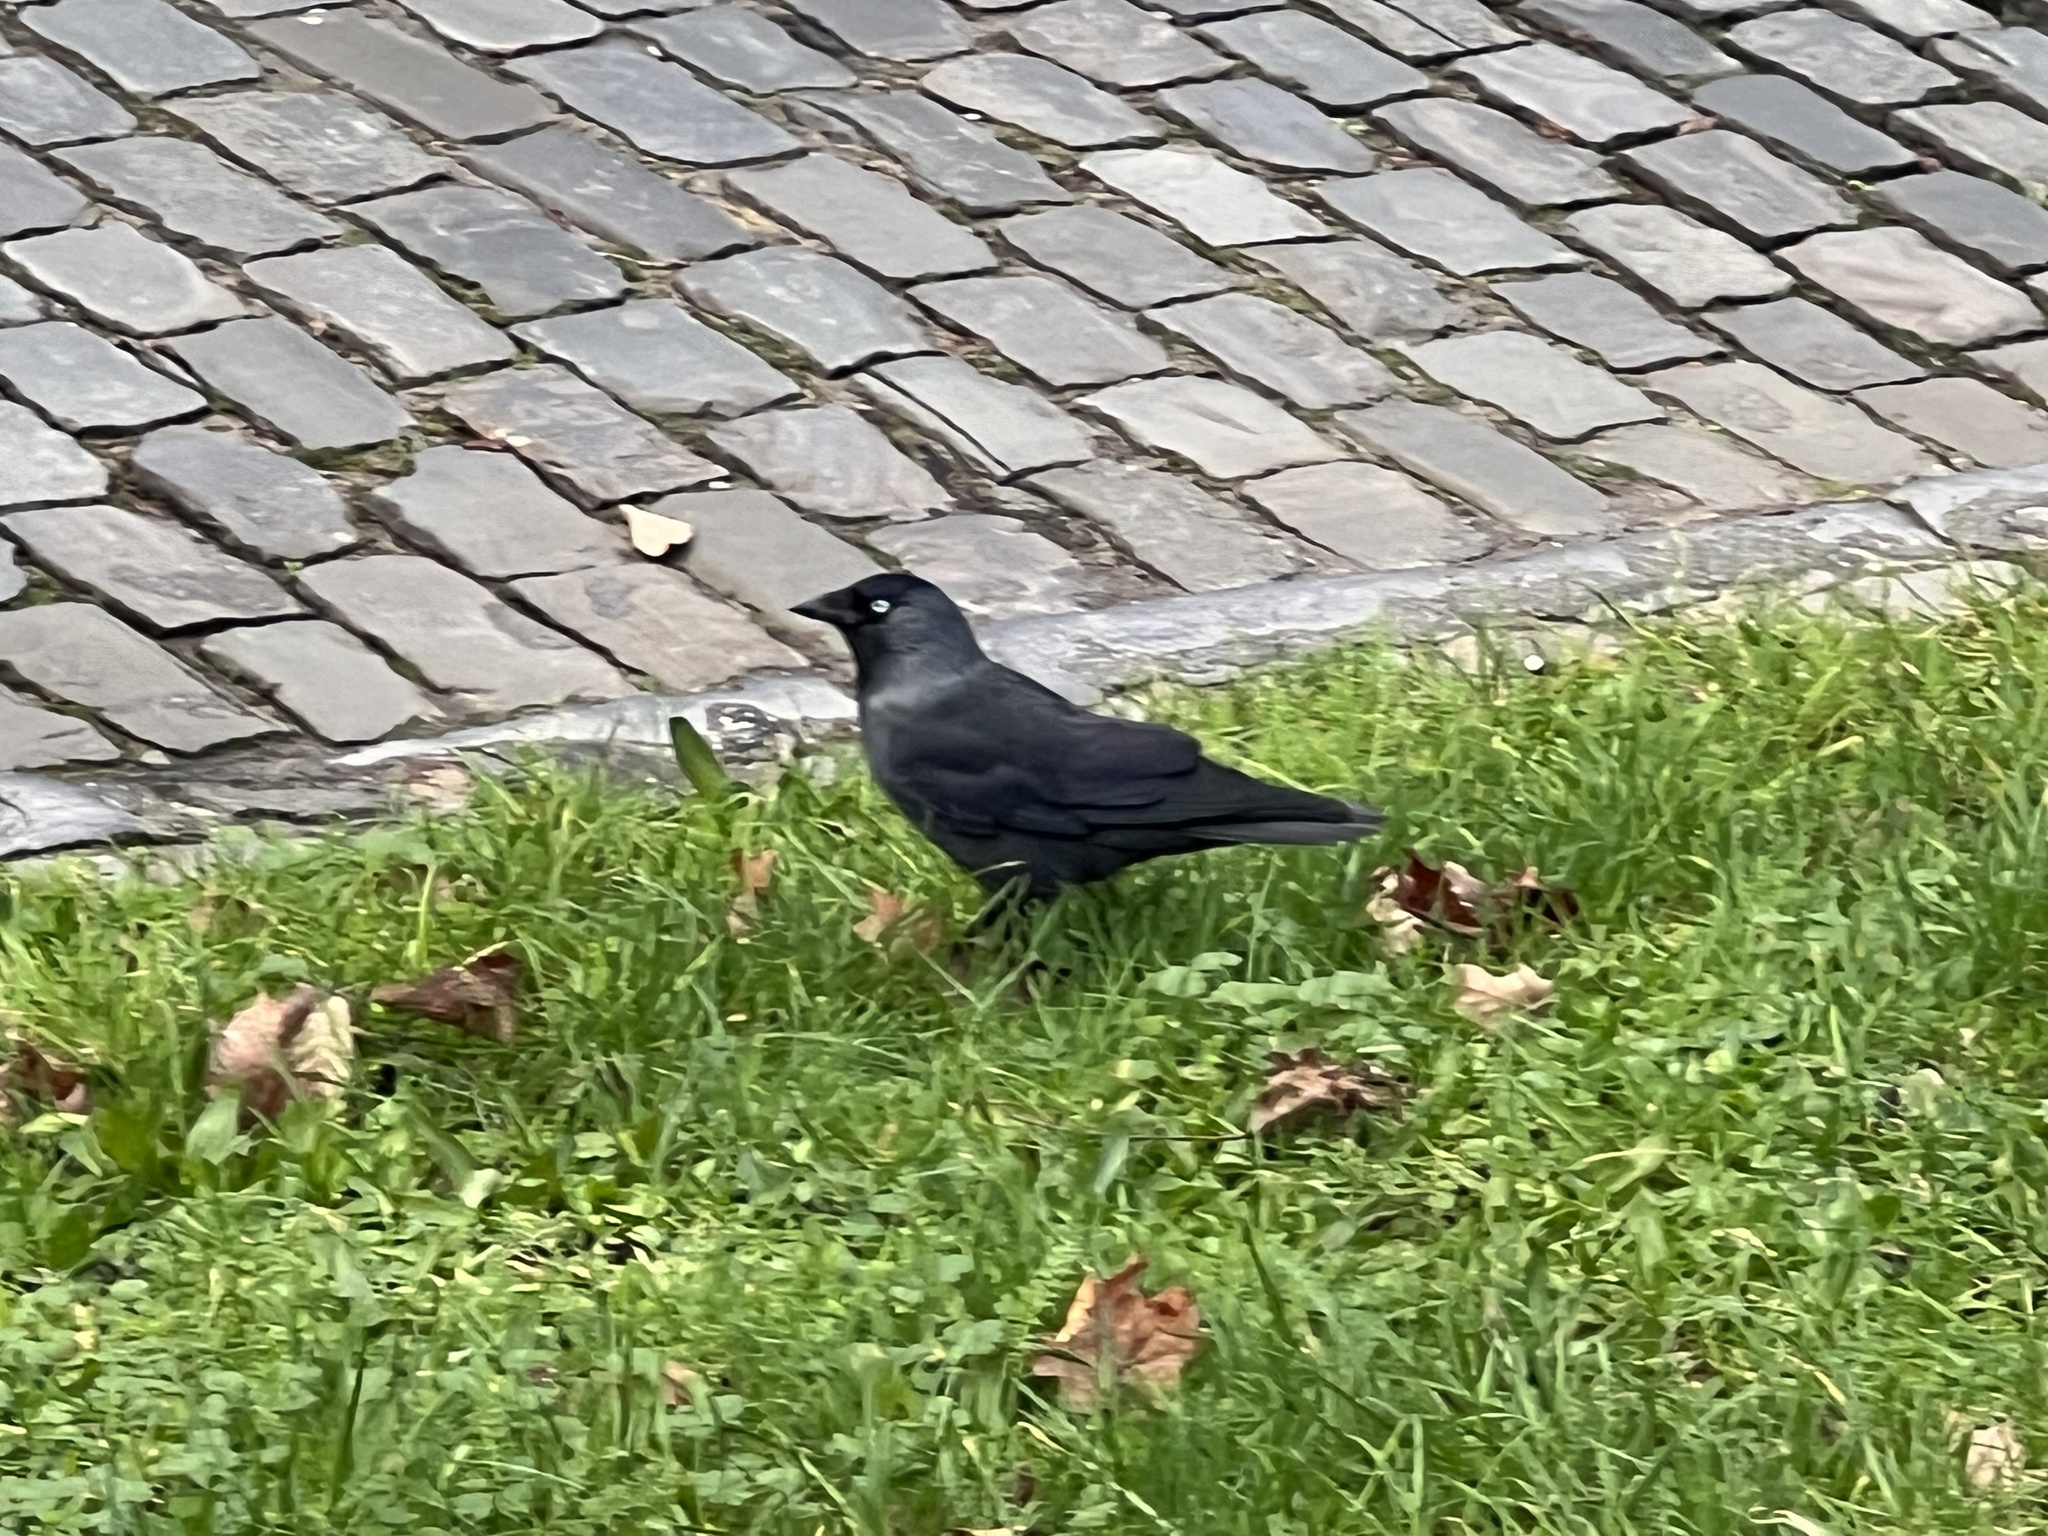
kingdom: Animalia
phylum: Chordata
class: Aves
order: Passeriformes
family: Corvidae
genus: Coloeus
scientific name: Coloeus monedula
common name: Western jackdaw
